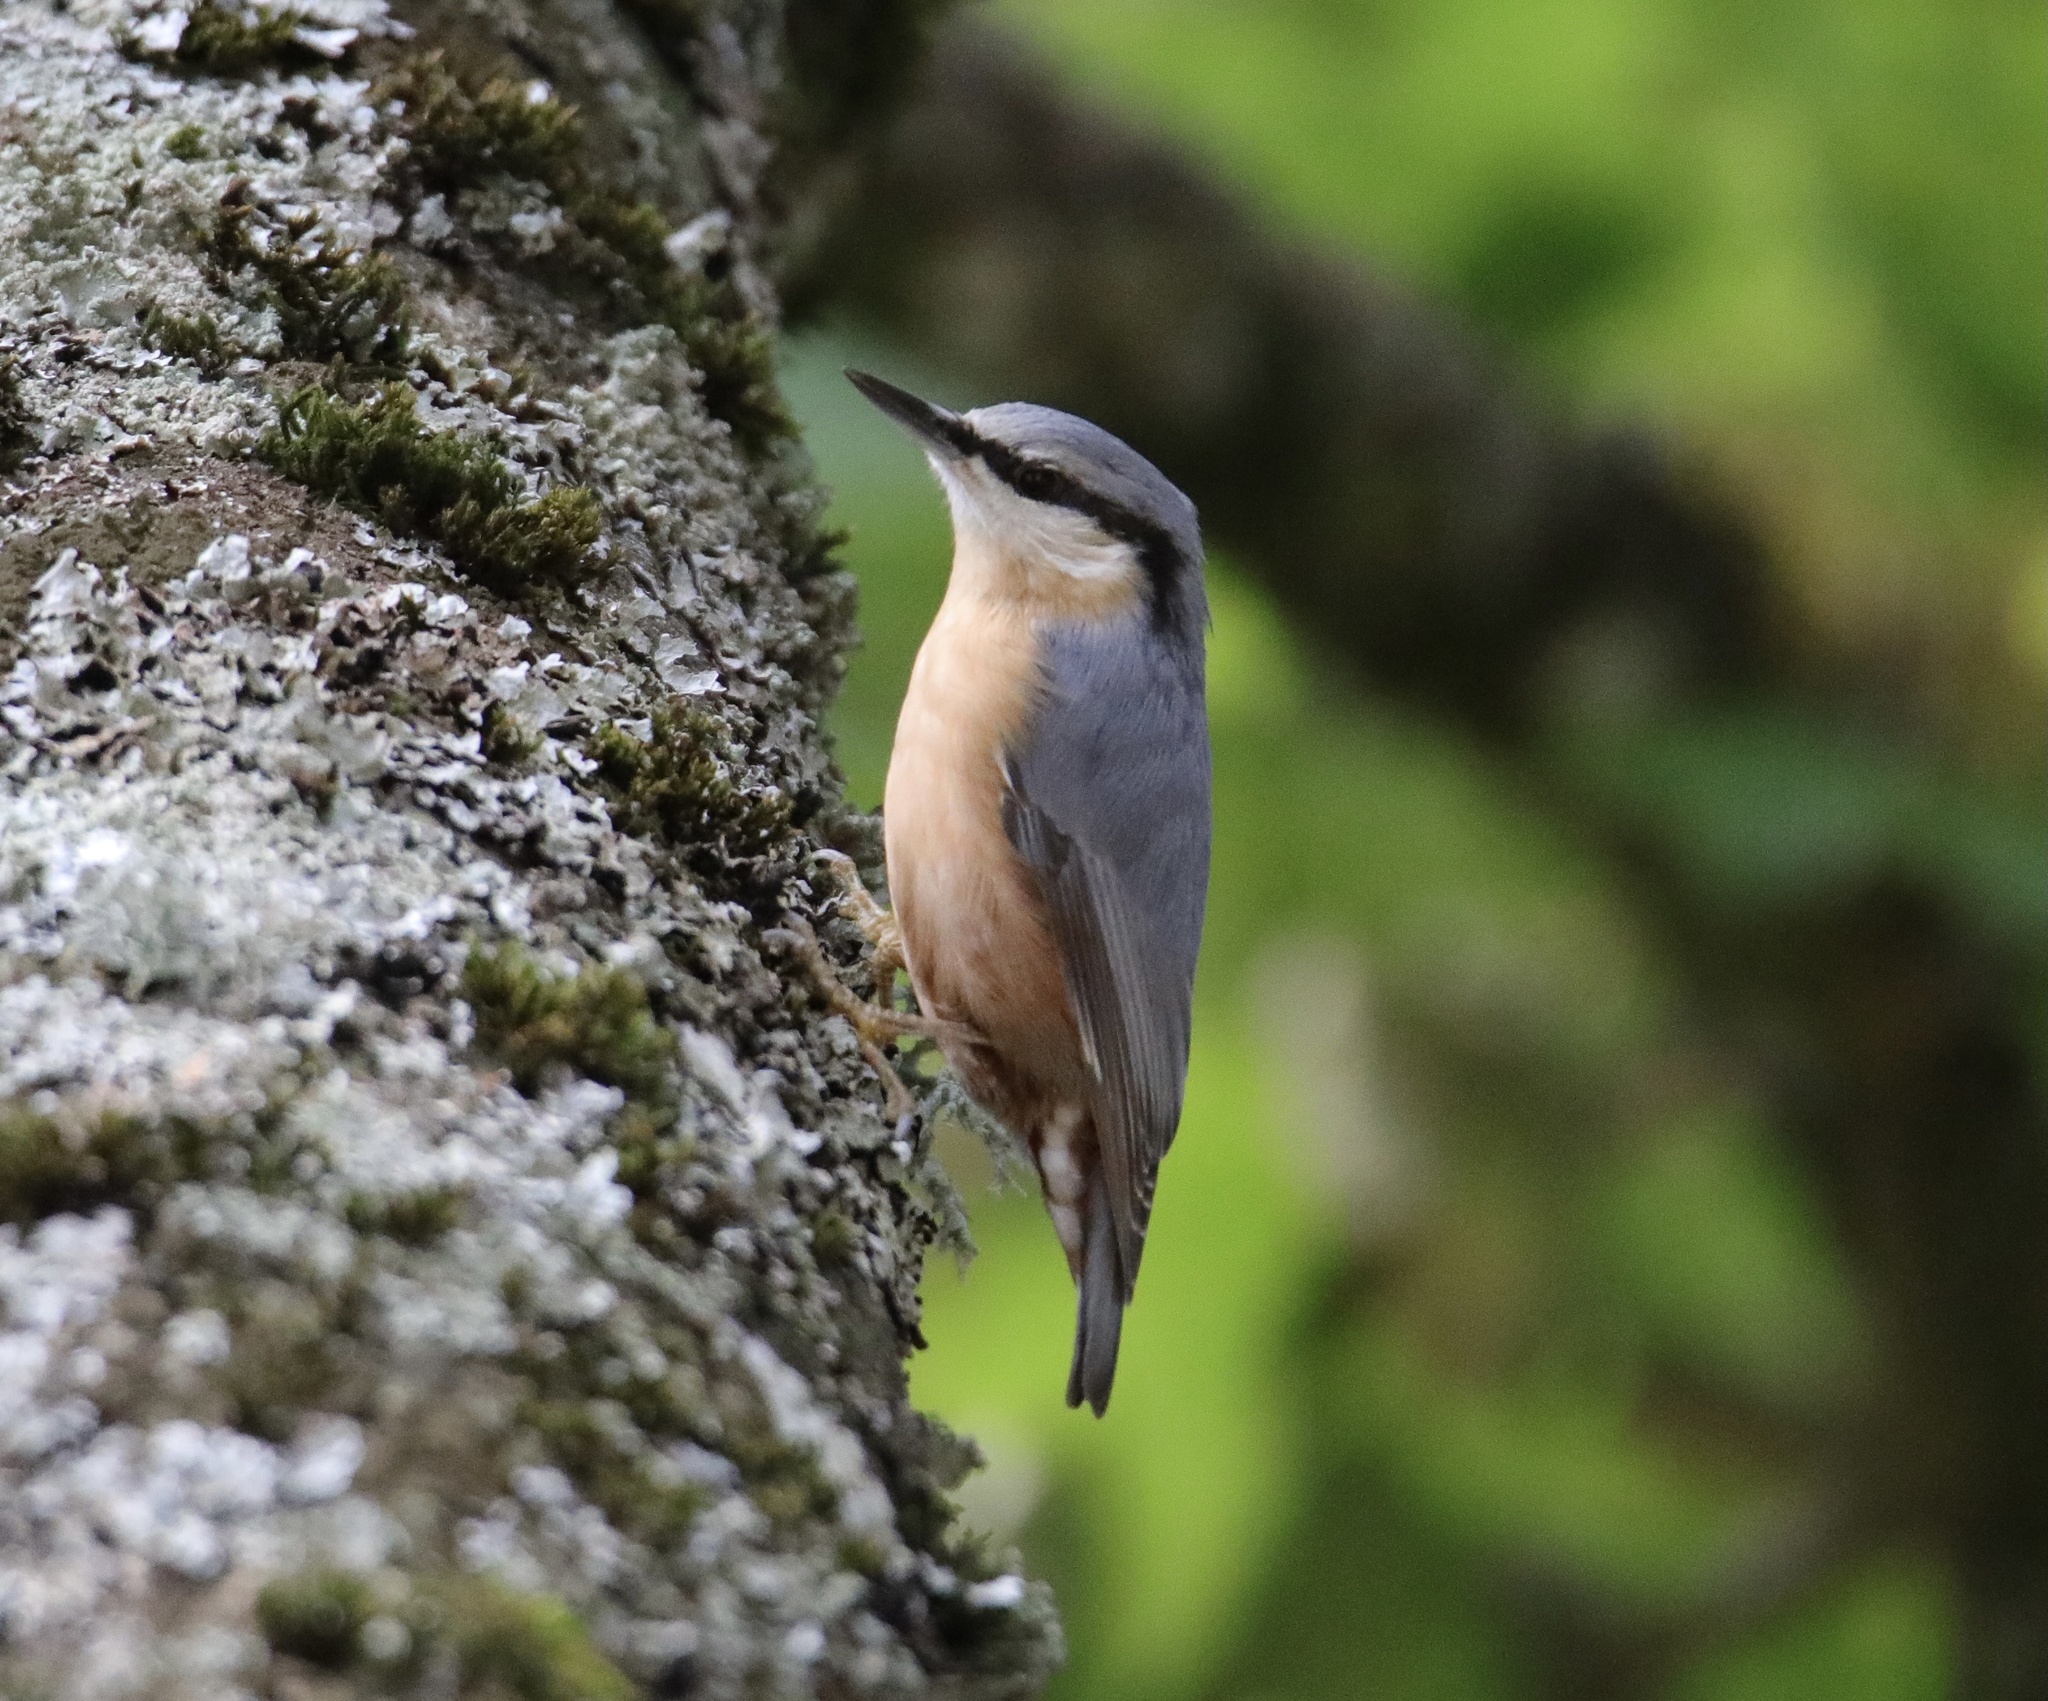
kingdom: Animalia
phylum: Chordata
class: Aves
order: Passeriformes
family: Sittidae
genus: Sitta
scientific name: Sitta europaea
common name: Eurasian nuthatch
